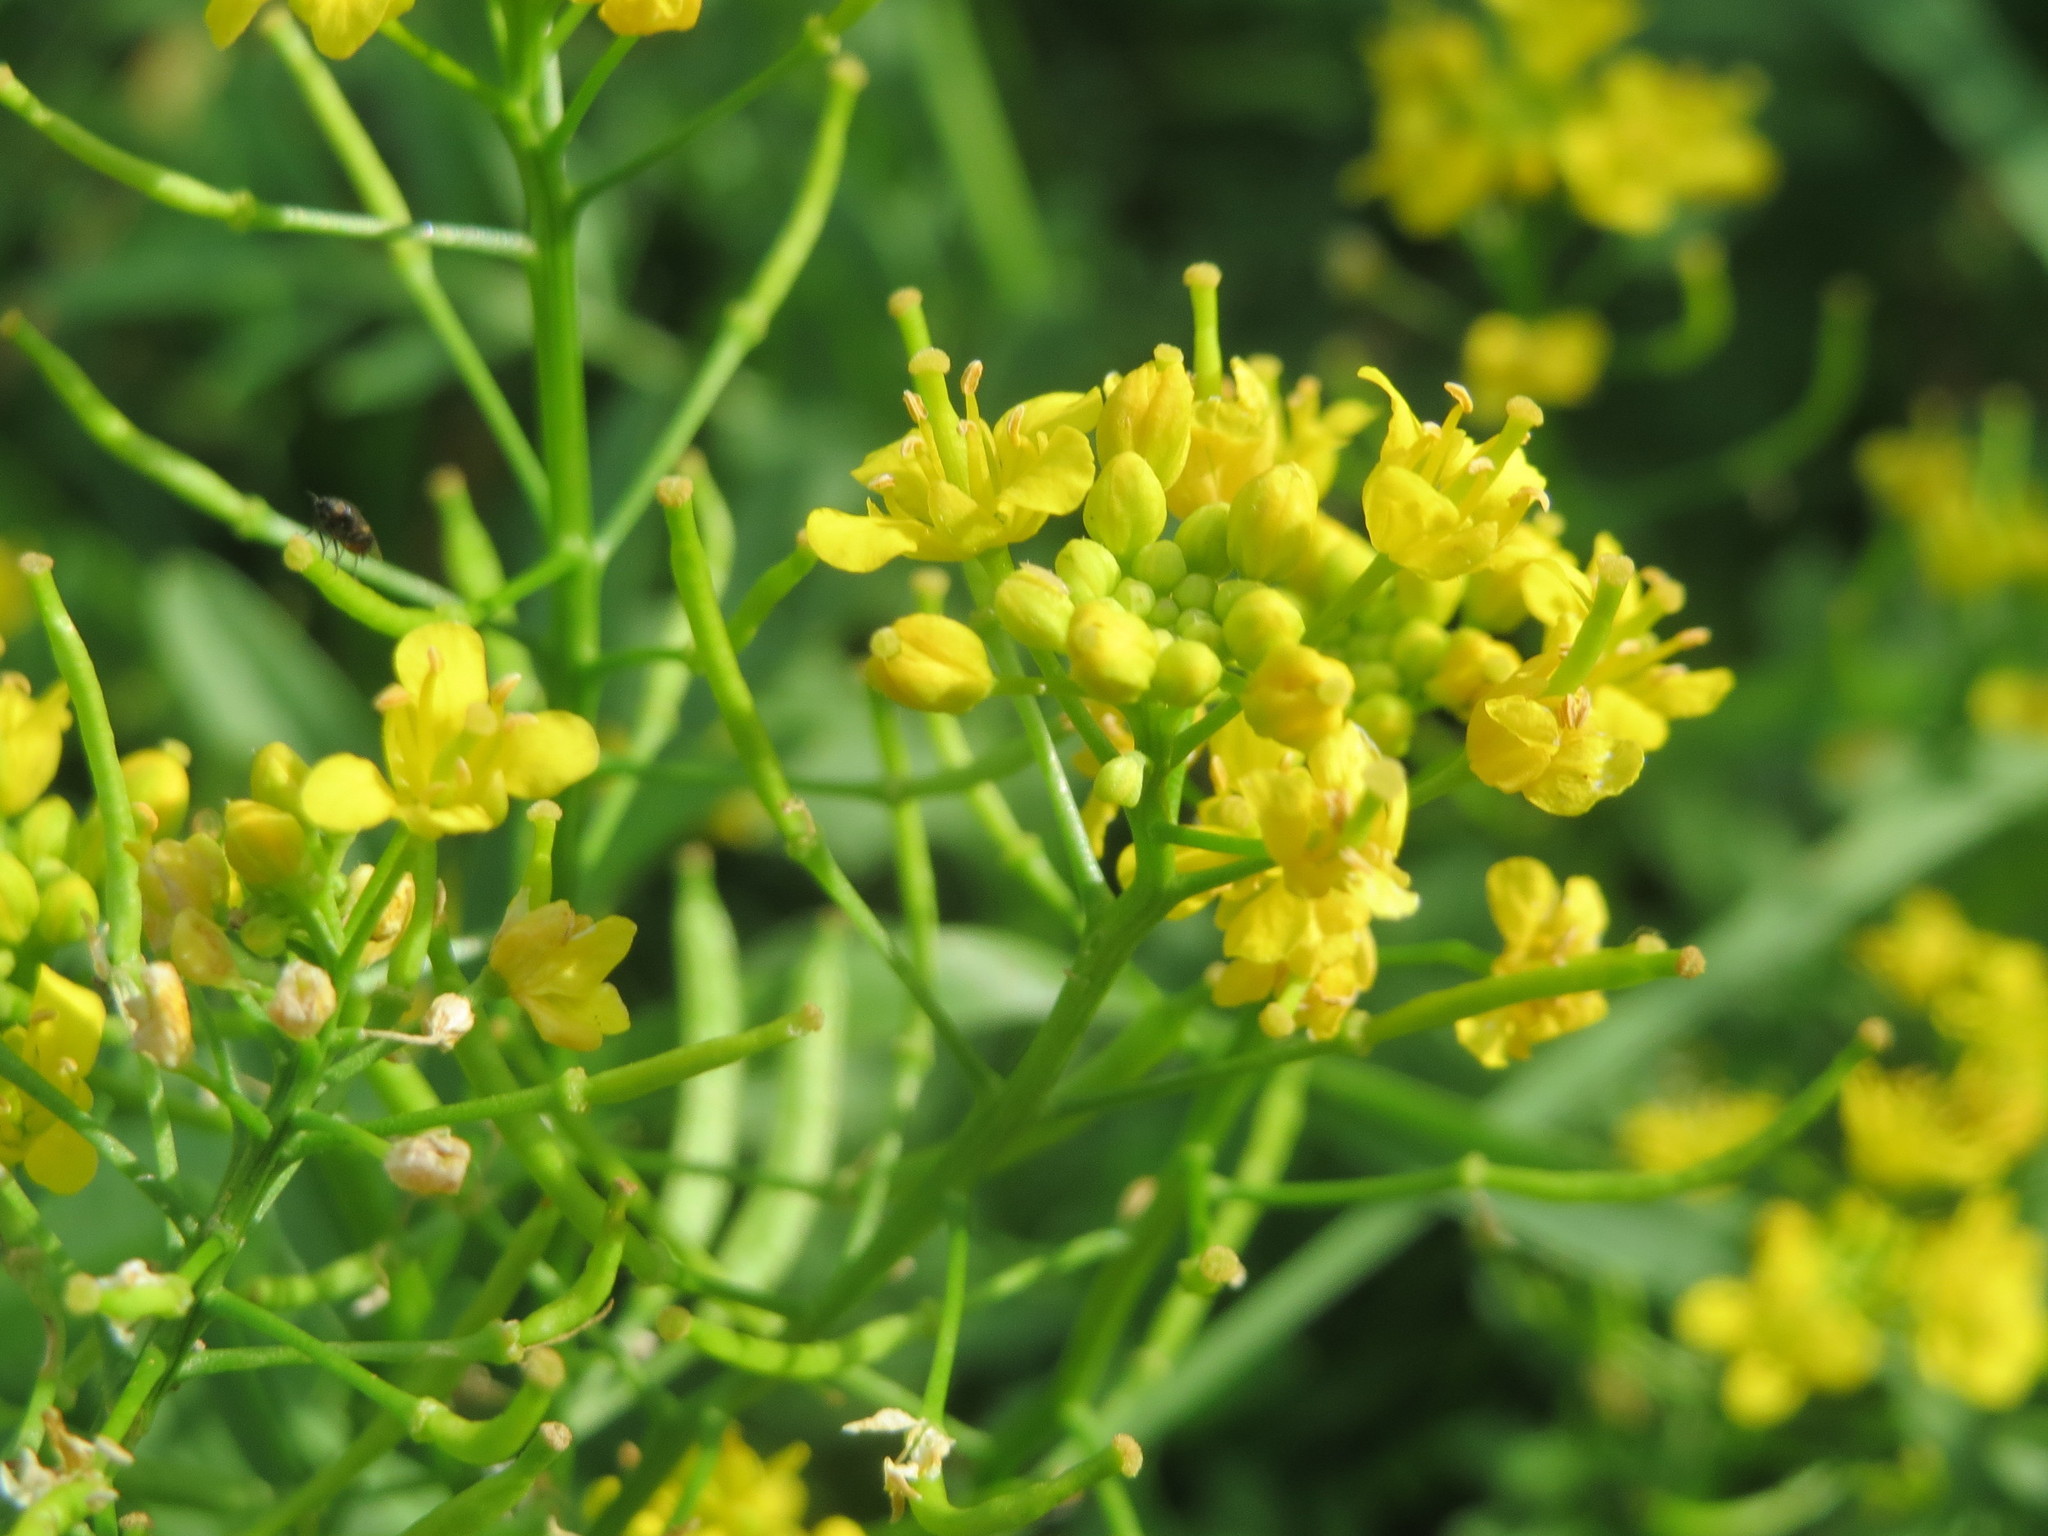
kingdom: Plantae
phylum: Tracheophyta
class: Magnoliopsida
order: Brassicales
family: Brassicaceae
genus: Rorippa
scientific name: Rorippa sylvestris
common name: Creeping yellowcress
